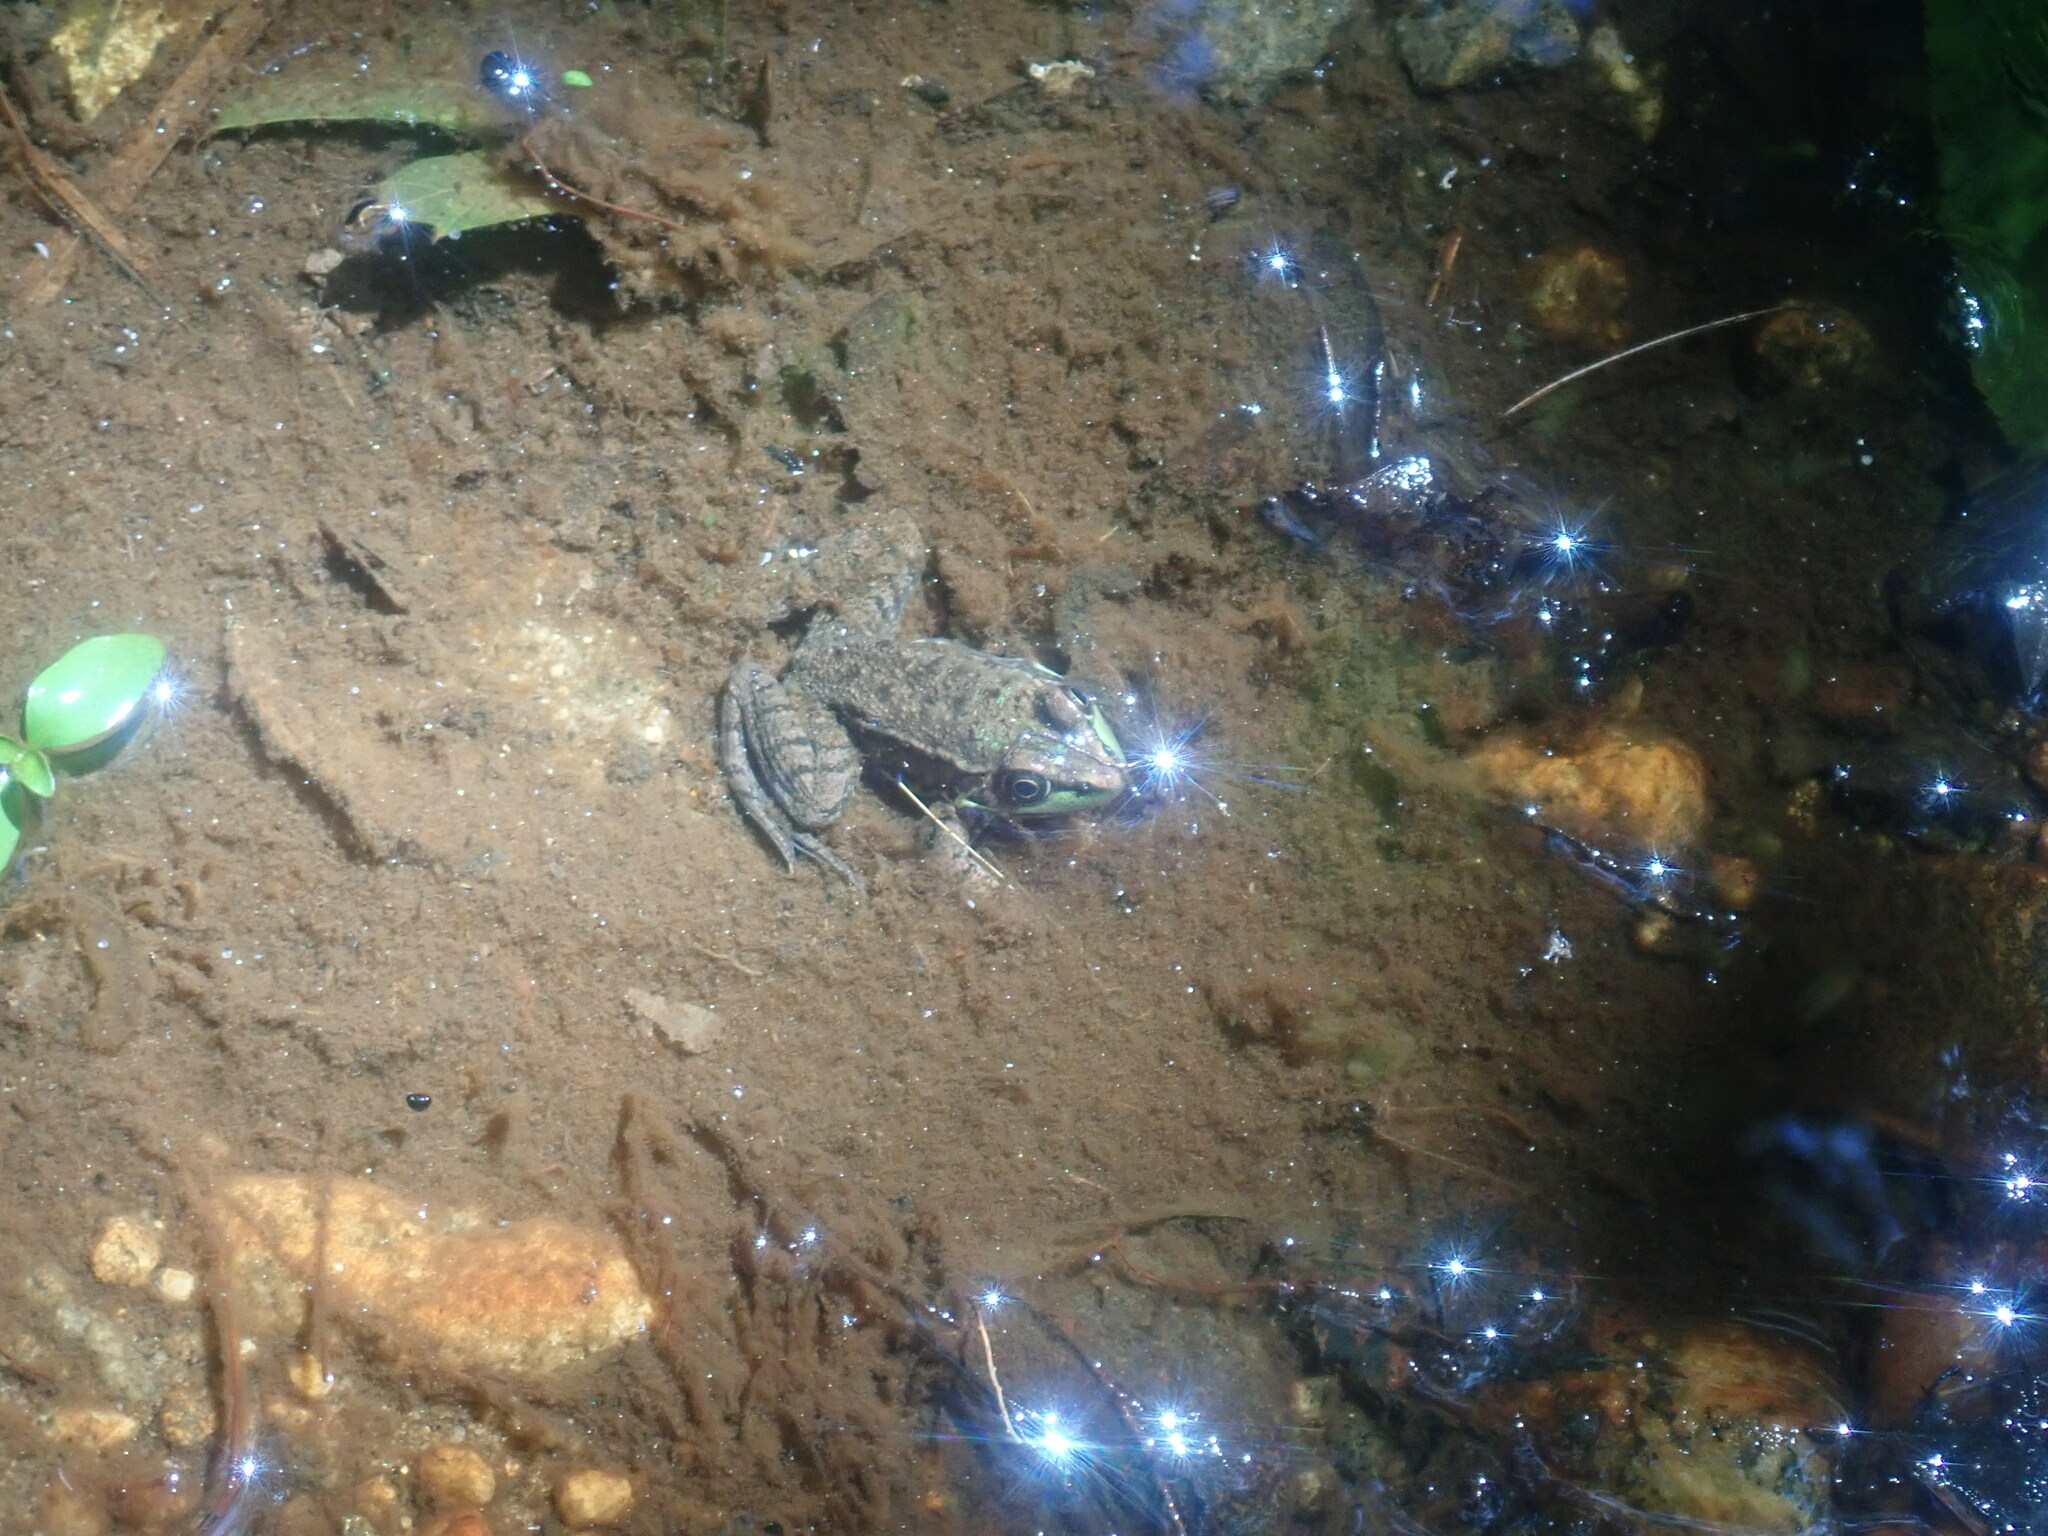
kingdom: Animalia
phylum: Chordata
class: Amphibia
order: Anura
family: Ranidae
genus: Lithobates
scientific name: Lithobates clamitans
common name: Green frog
